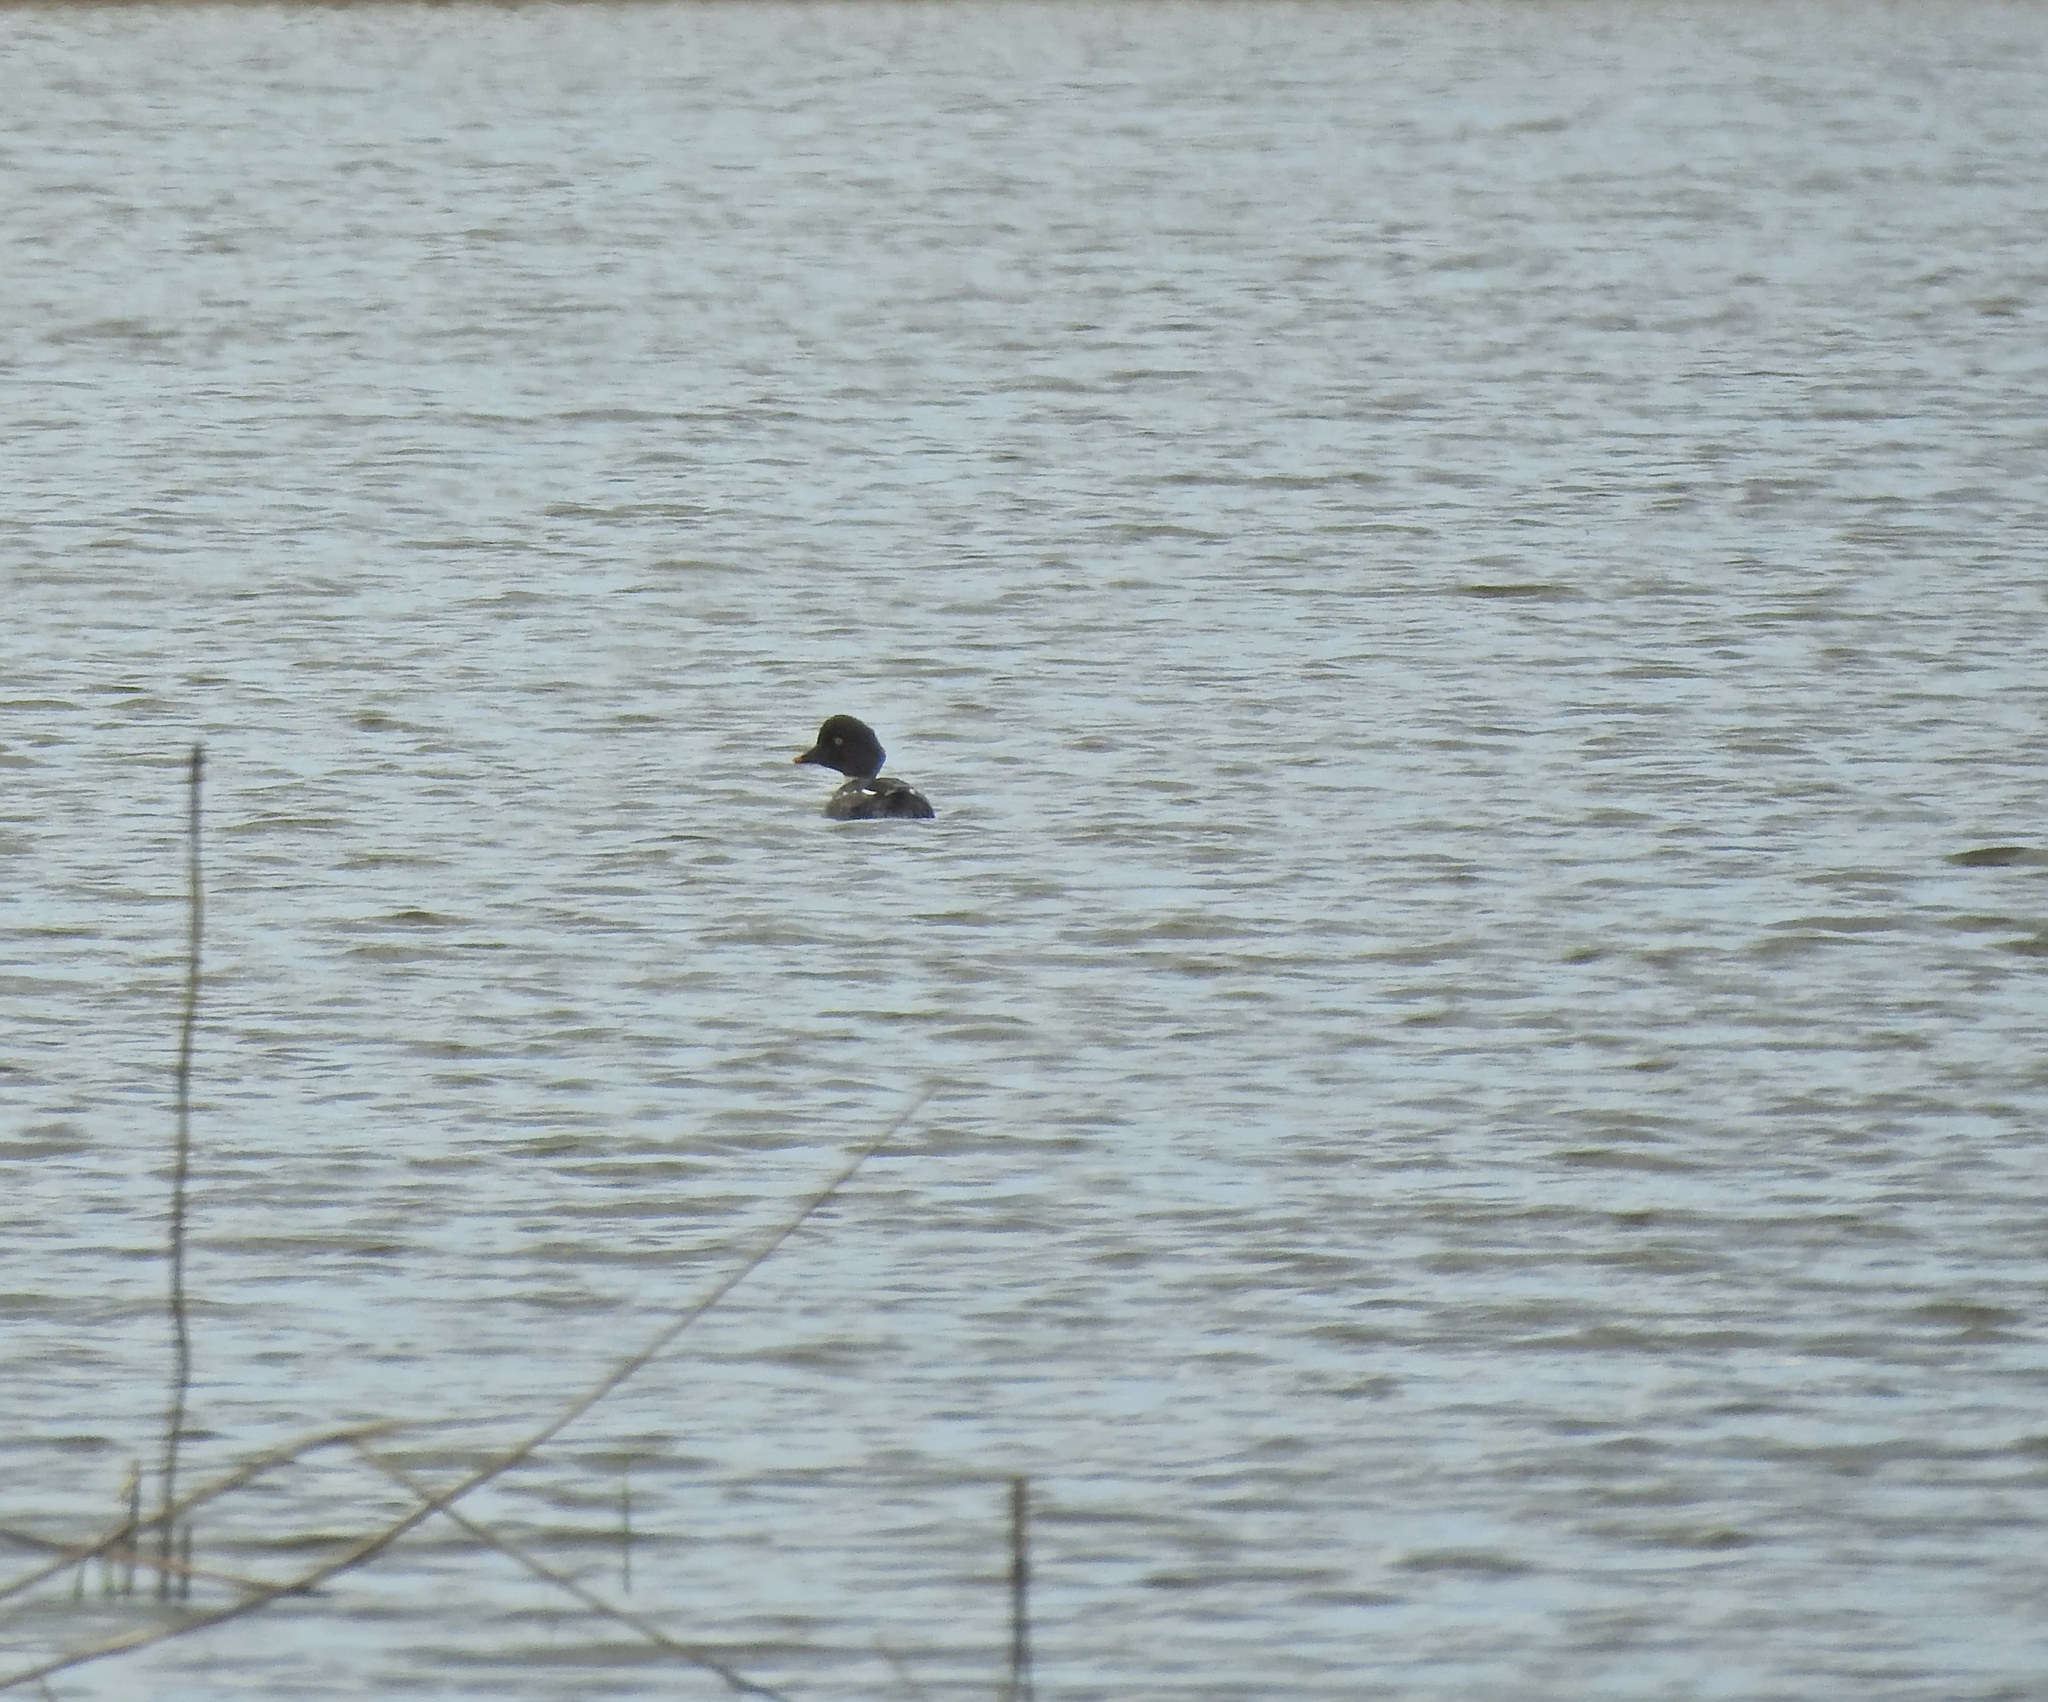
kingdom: Animalia
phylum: Chordata
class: Aves
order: Anseriformes
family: Anatidae
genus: Bucephala
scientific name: Bucephala clangula
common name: Common goldeneye
